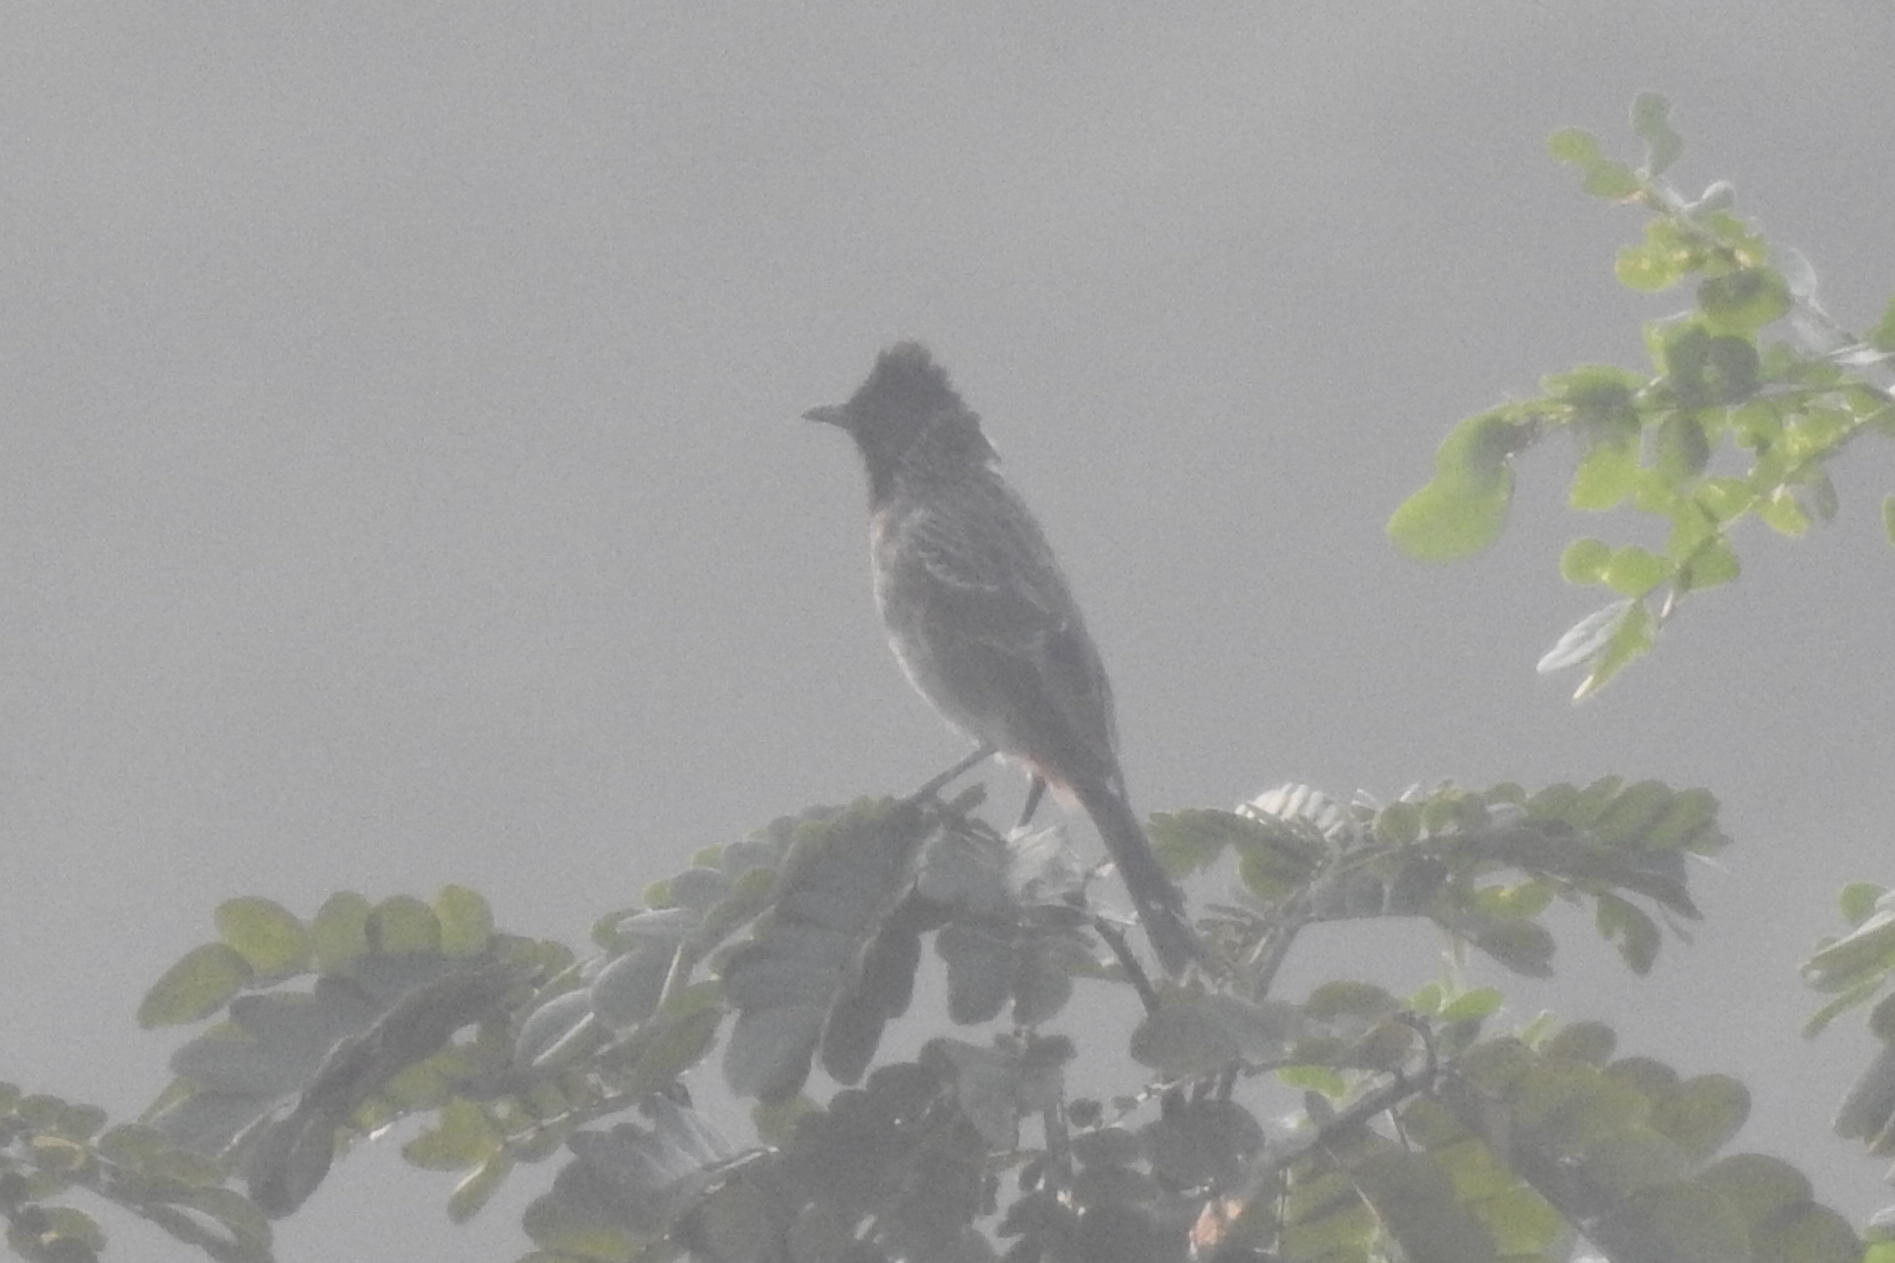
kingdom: Animalia
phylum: Chordata
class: Aves
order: Passeriformes
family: Pycnonotidae
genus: Pycnonotus
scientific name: Pycnonotus cafer
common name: Red-vented bulbul
